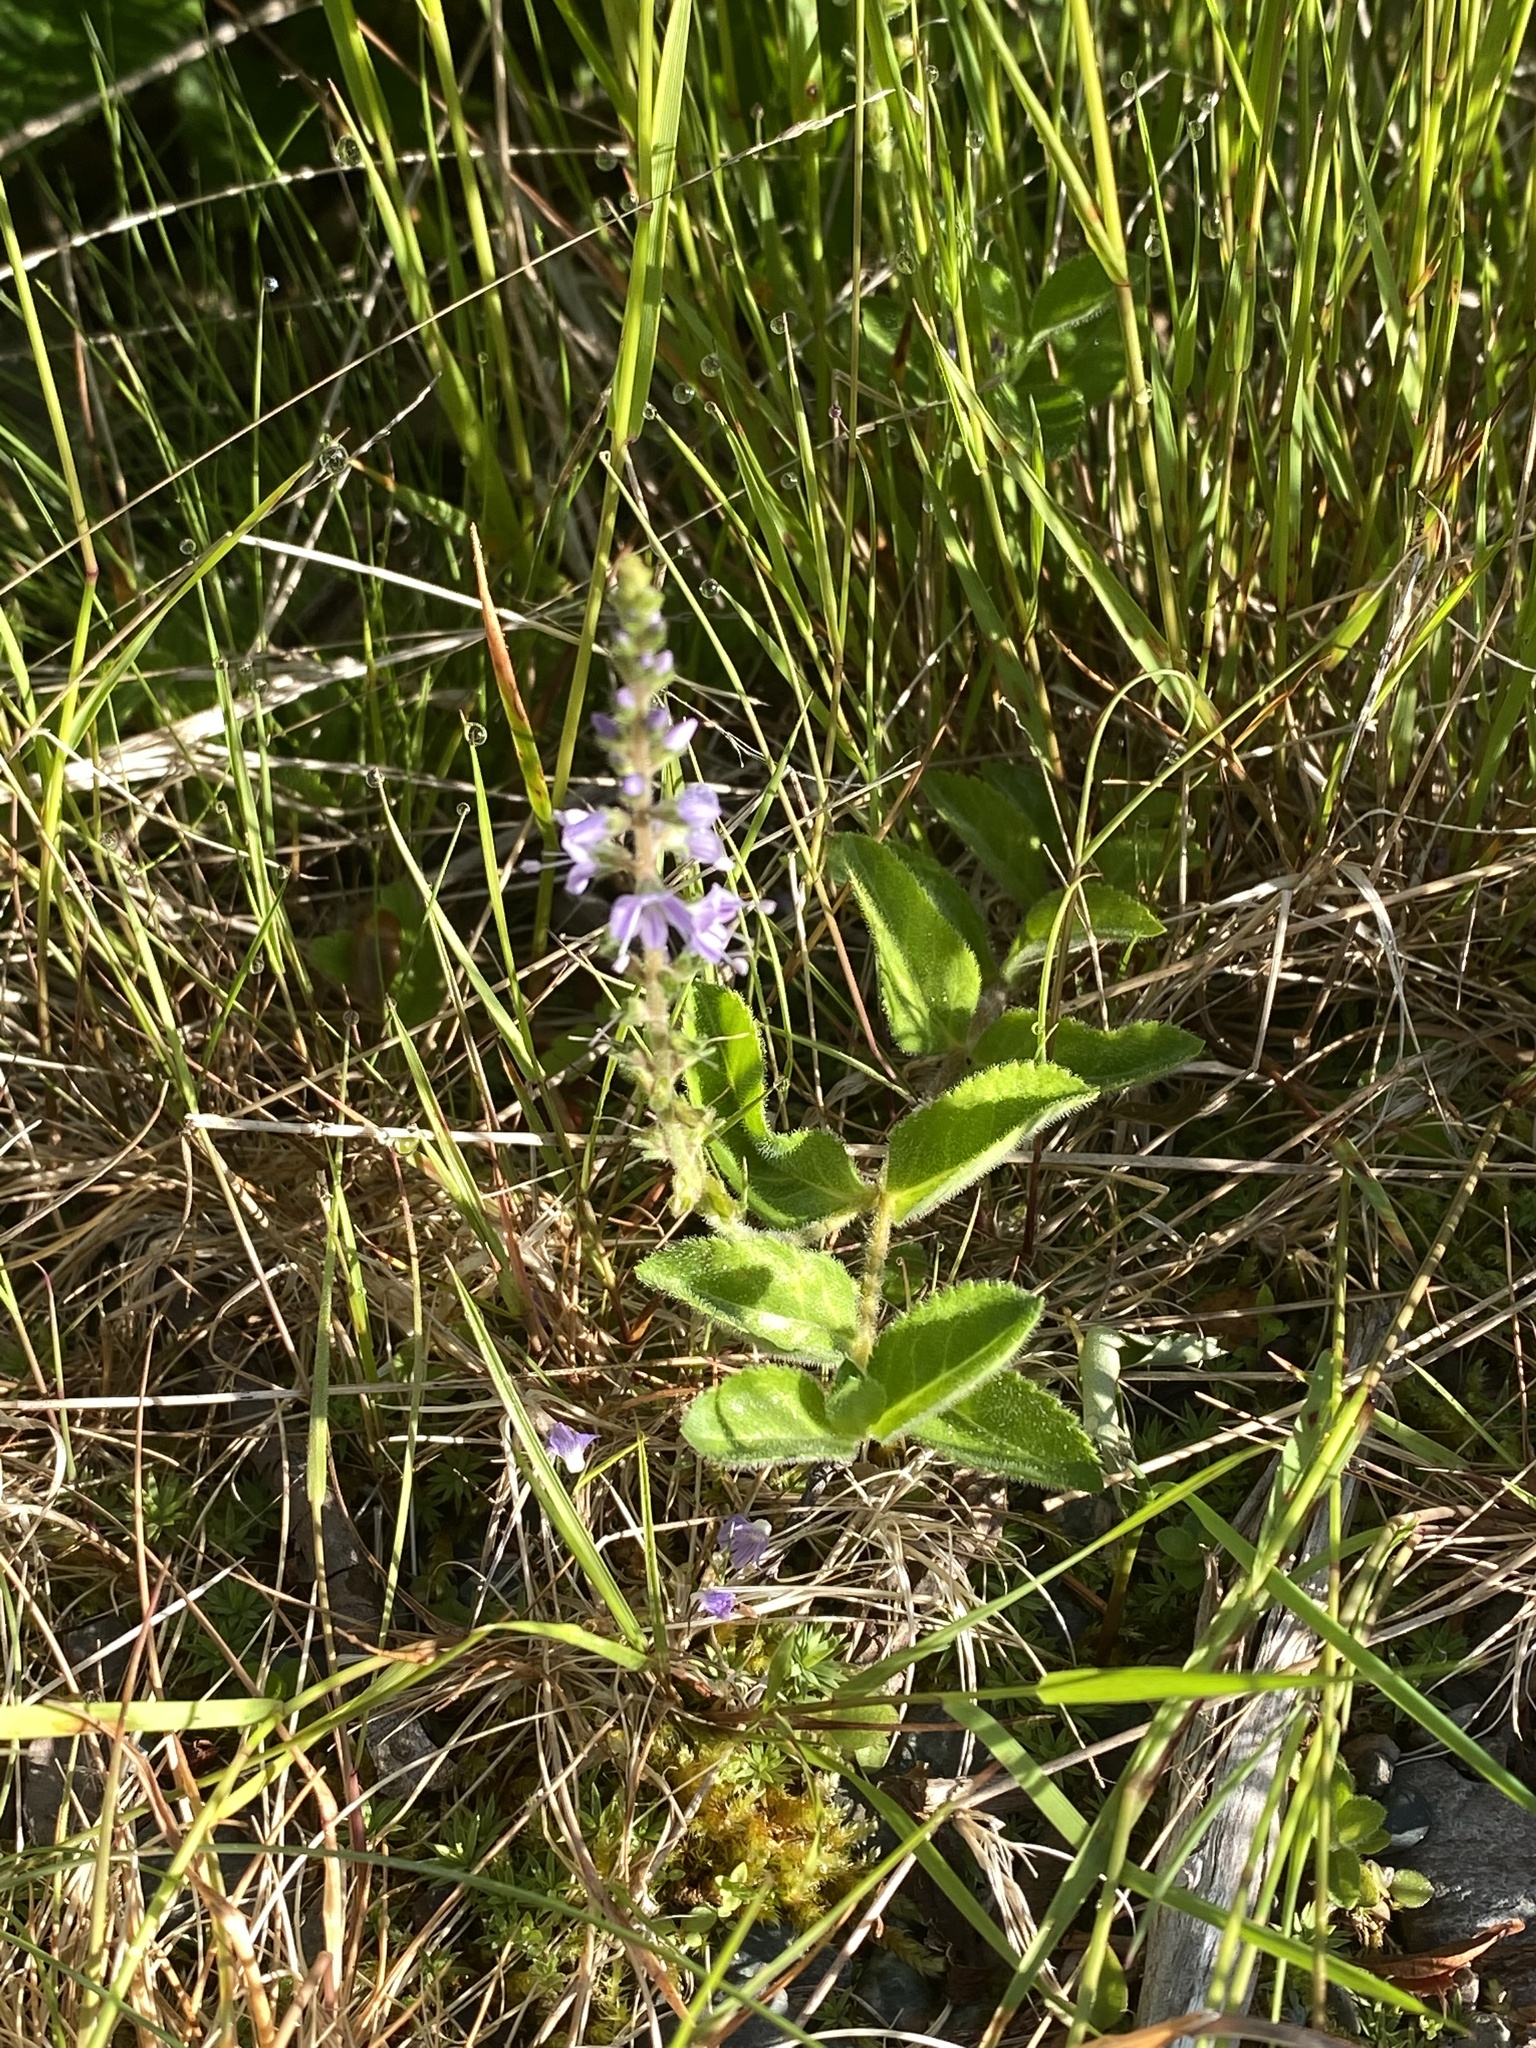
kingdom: Plantae
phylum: Tracheophyta
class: Magnoliopsida
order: Lamiales
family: Plantaginaceae
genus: Veronica
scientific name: Veronica officinalis
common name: Common speedwell
